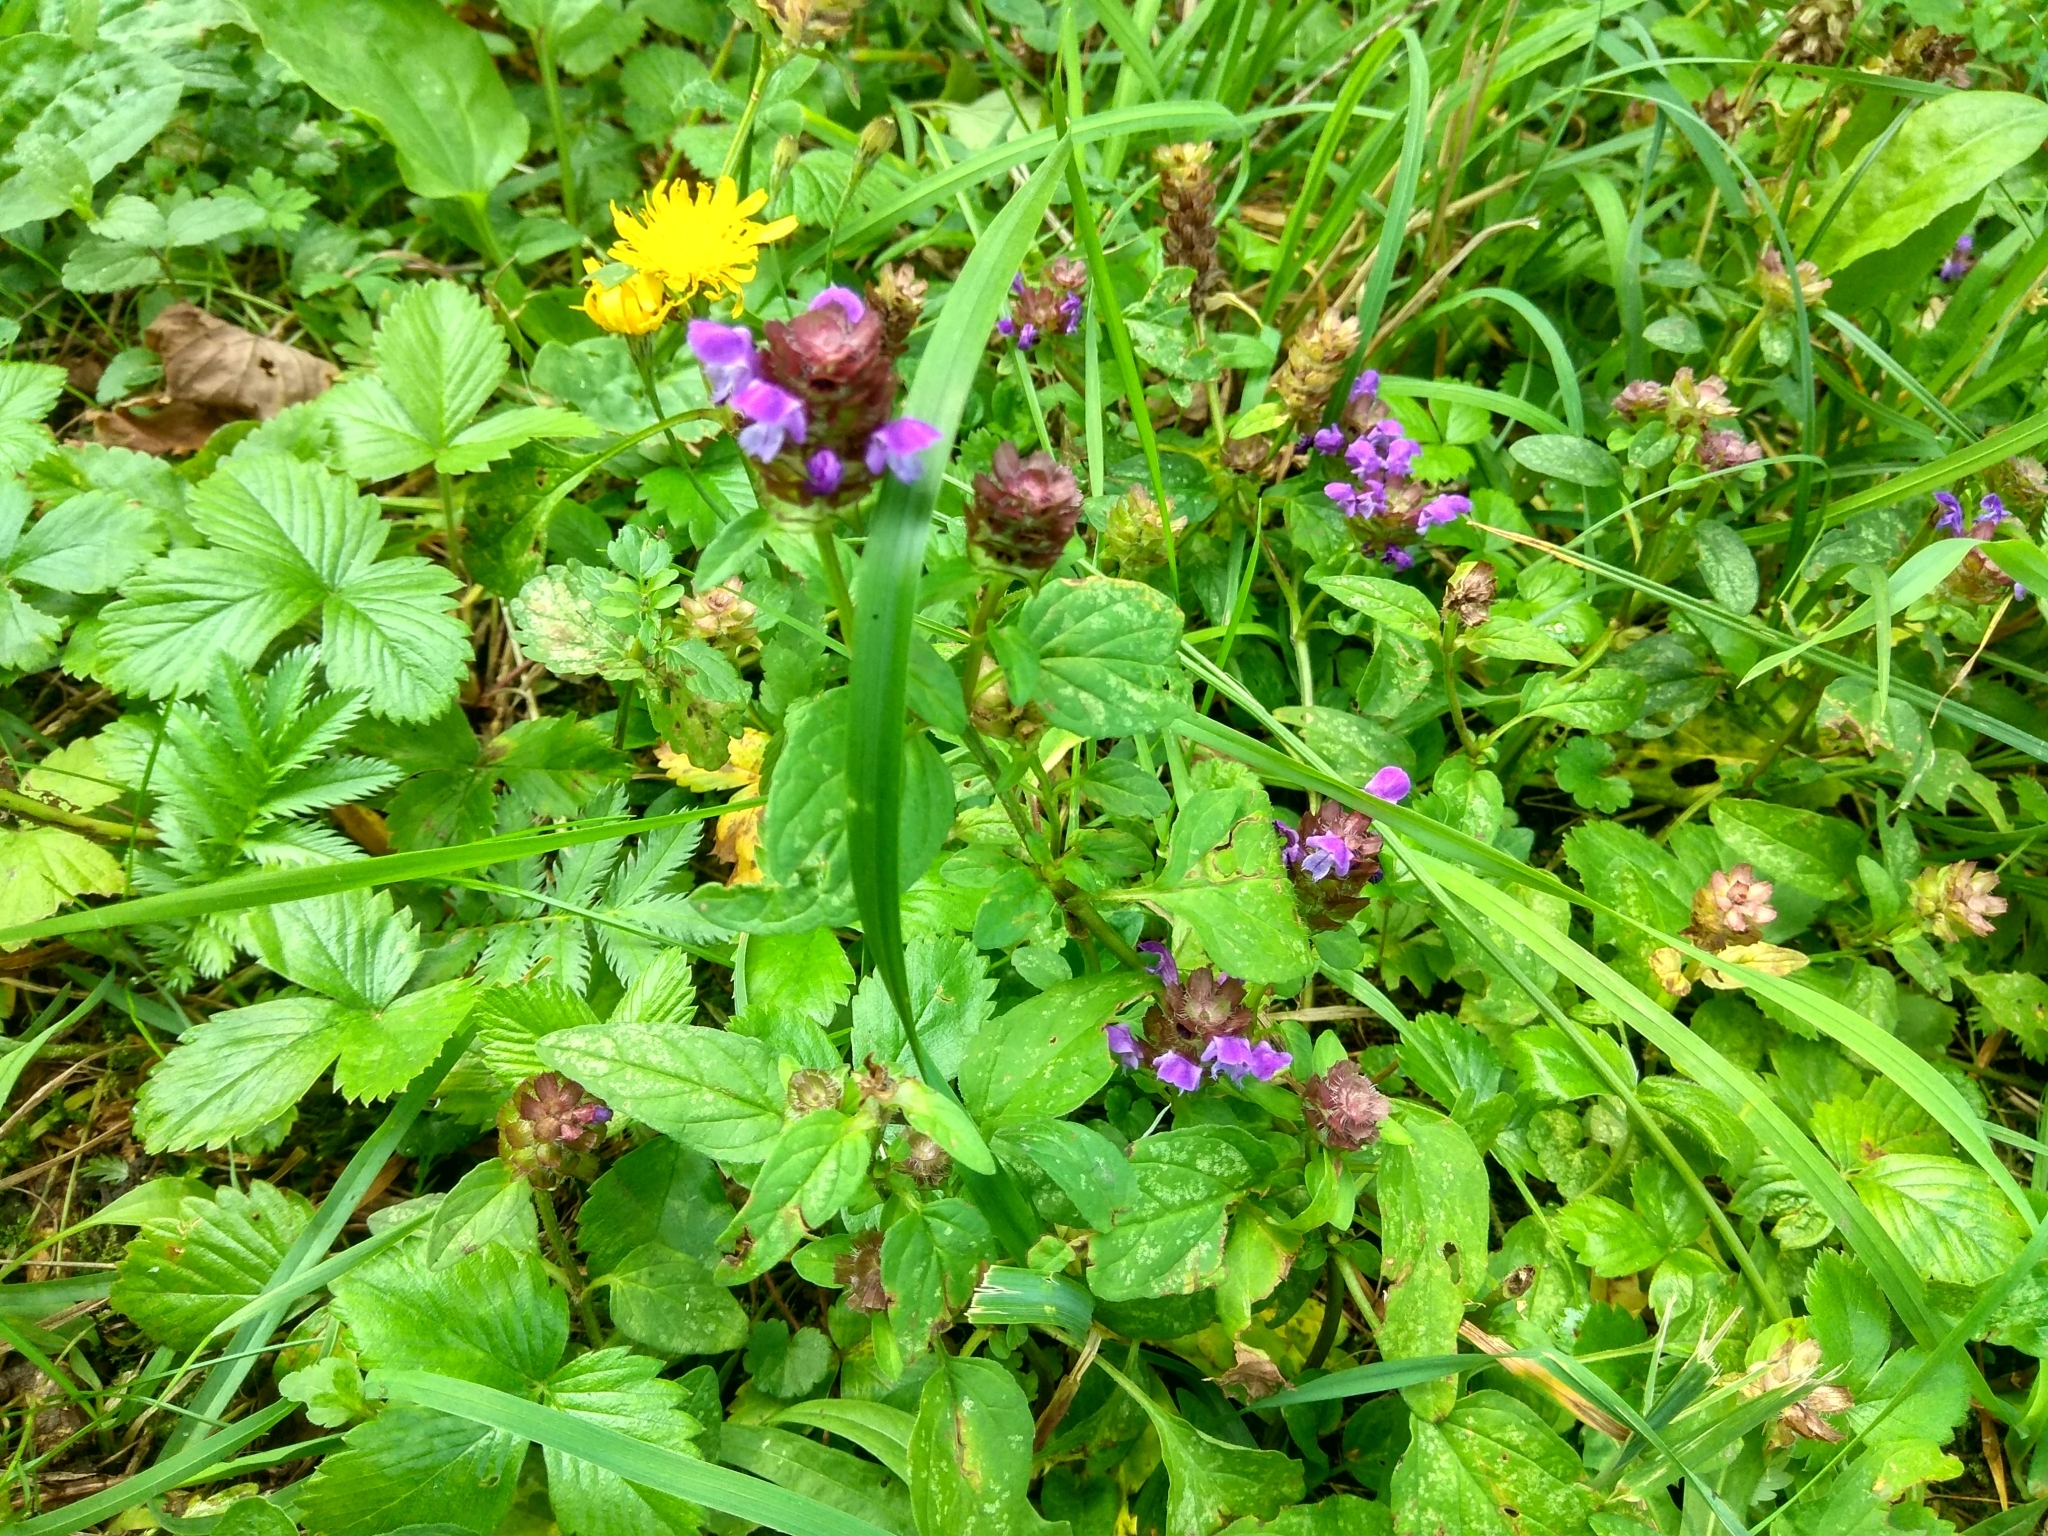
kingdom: Plantae
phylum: Tracheophyta
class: Magnoliopsida
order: Lamiales
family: Lamiaceae
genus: Prunella
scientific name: Prunella vulgaris
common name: Heal-all
